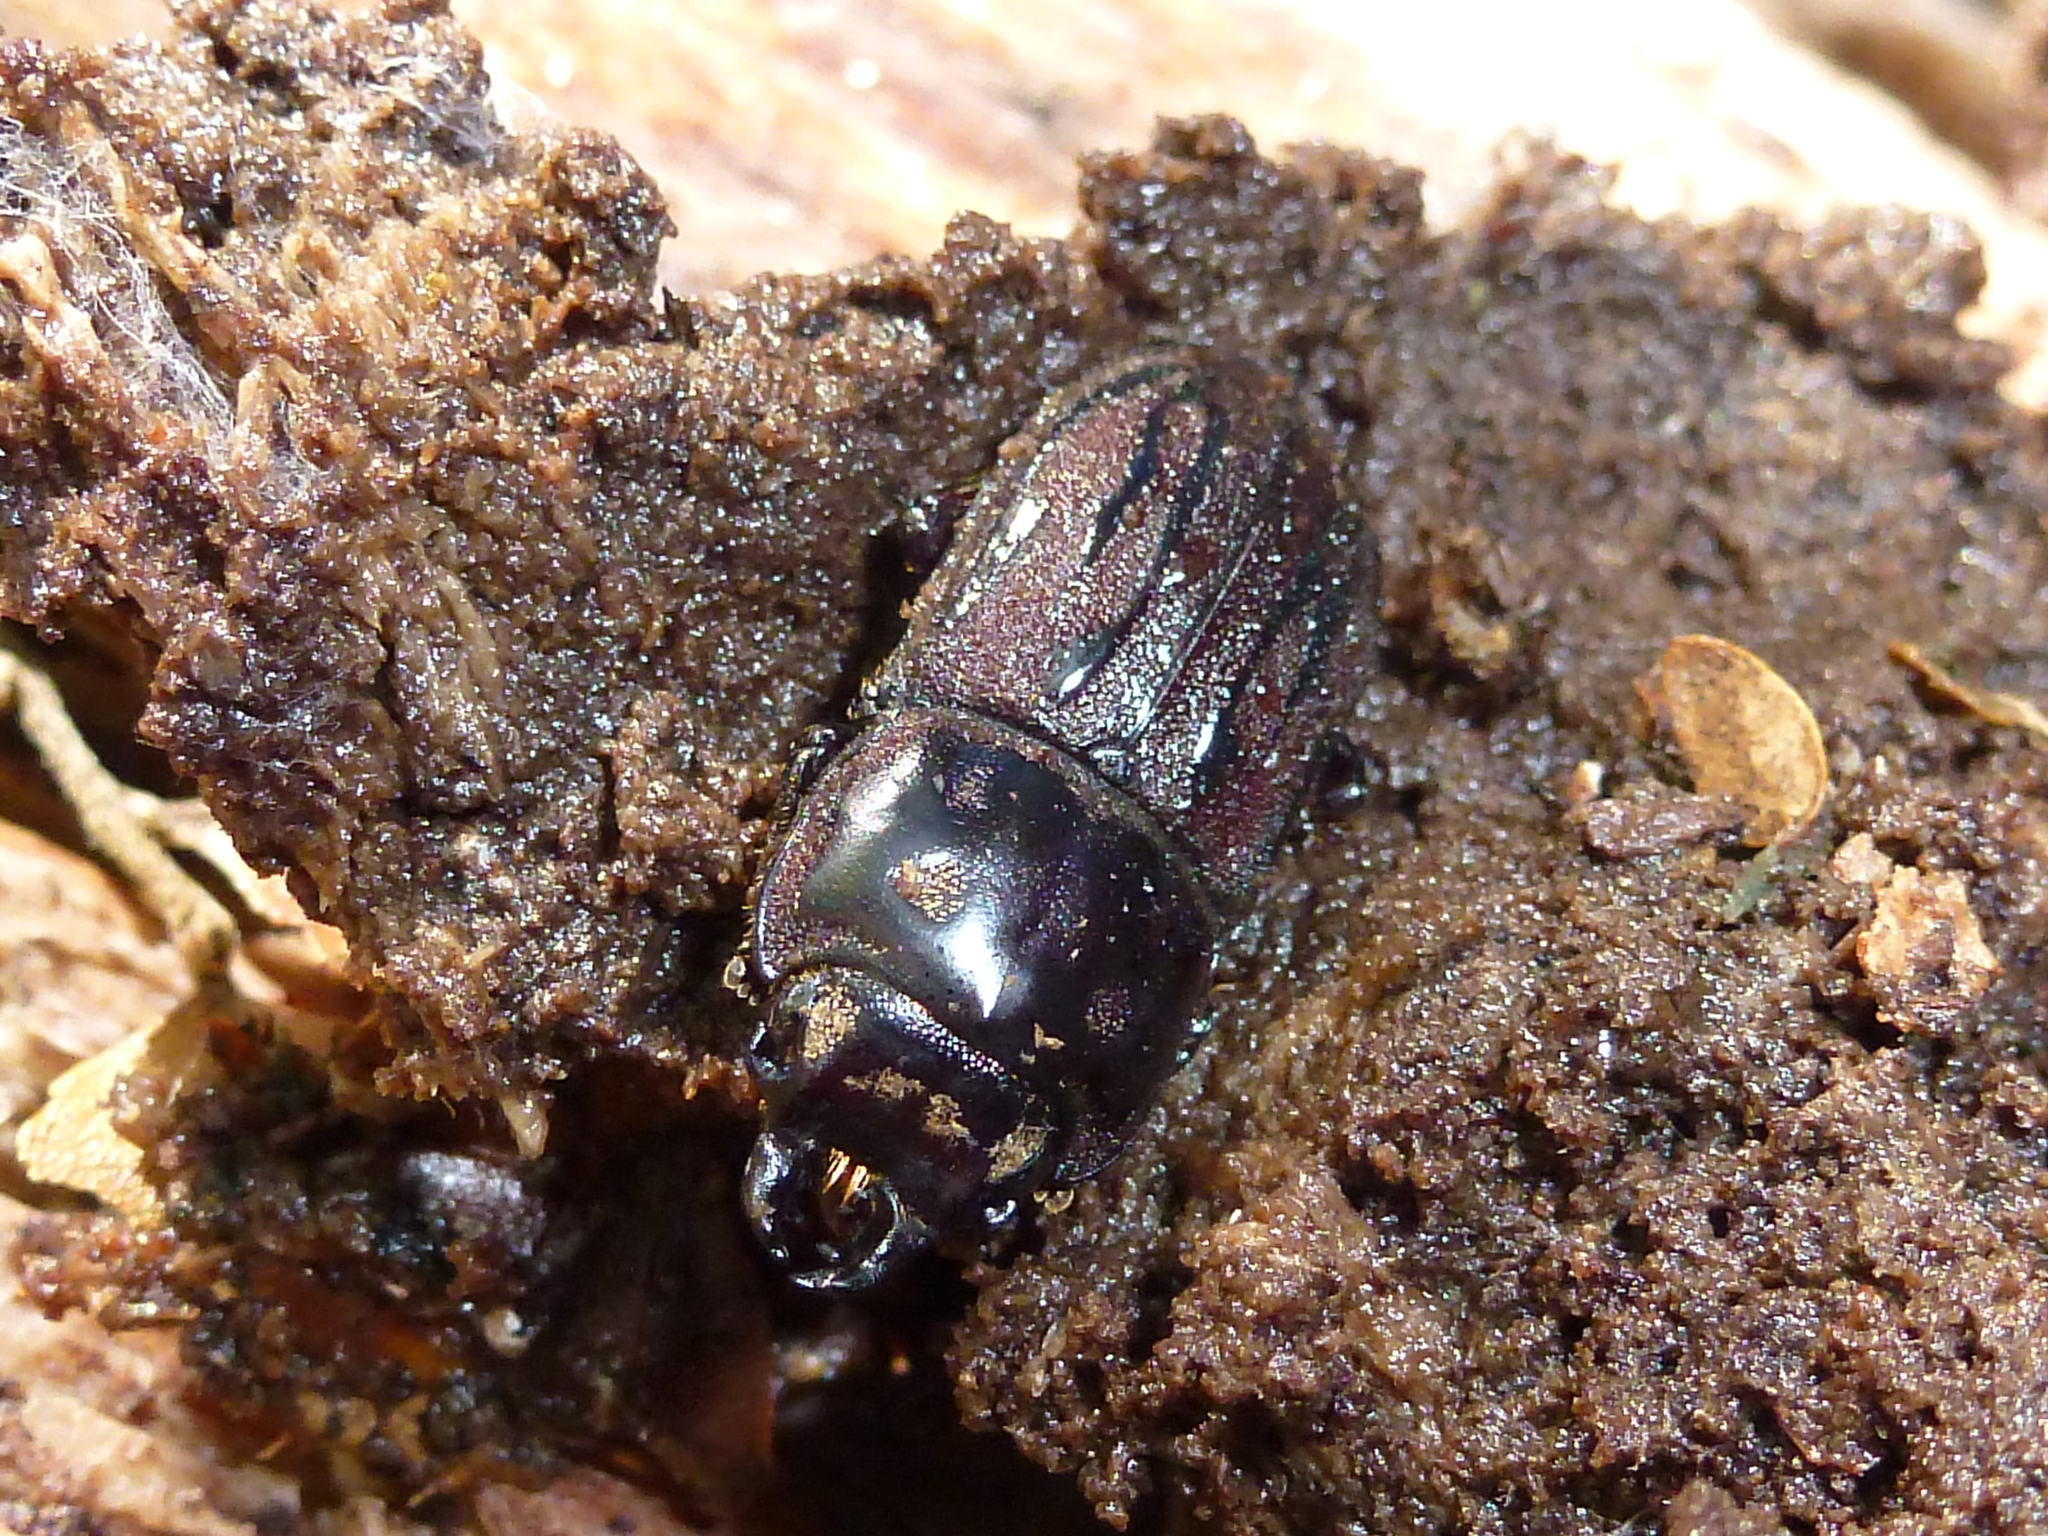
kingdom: Animalia
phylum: Arthropoda
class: Insecta
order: Coleoptera
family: Lucanidae
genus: Paralissotes
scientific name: Paralissotes reticulatus
